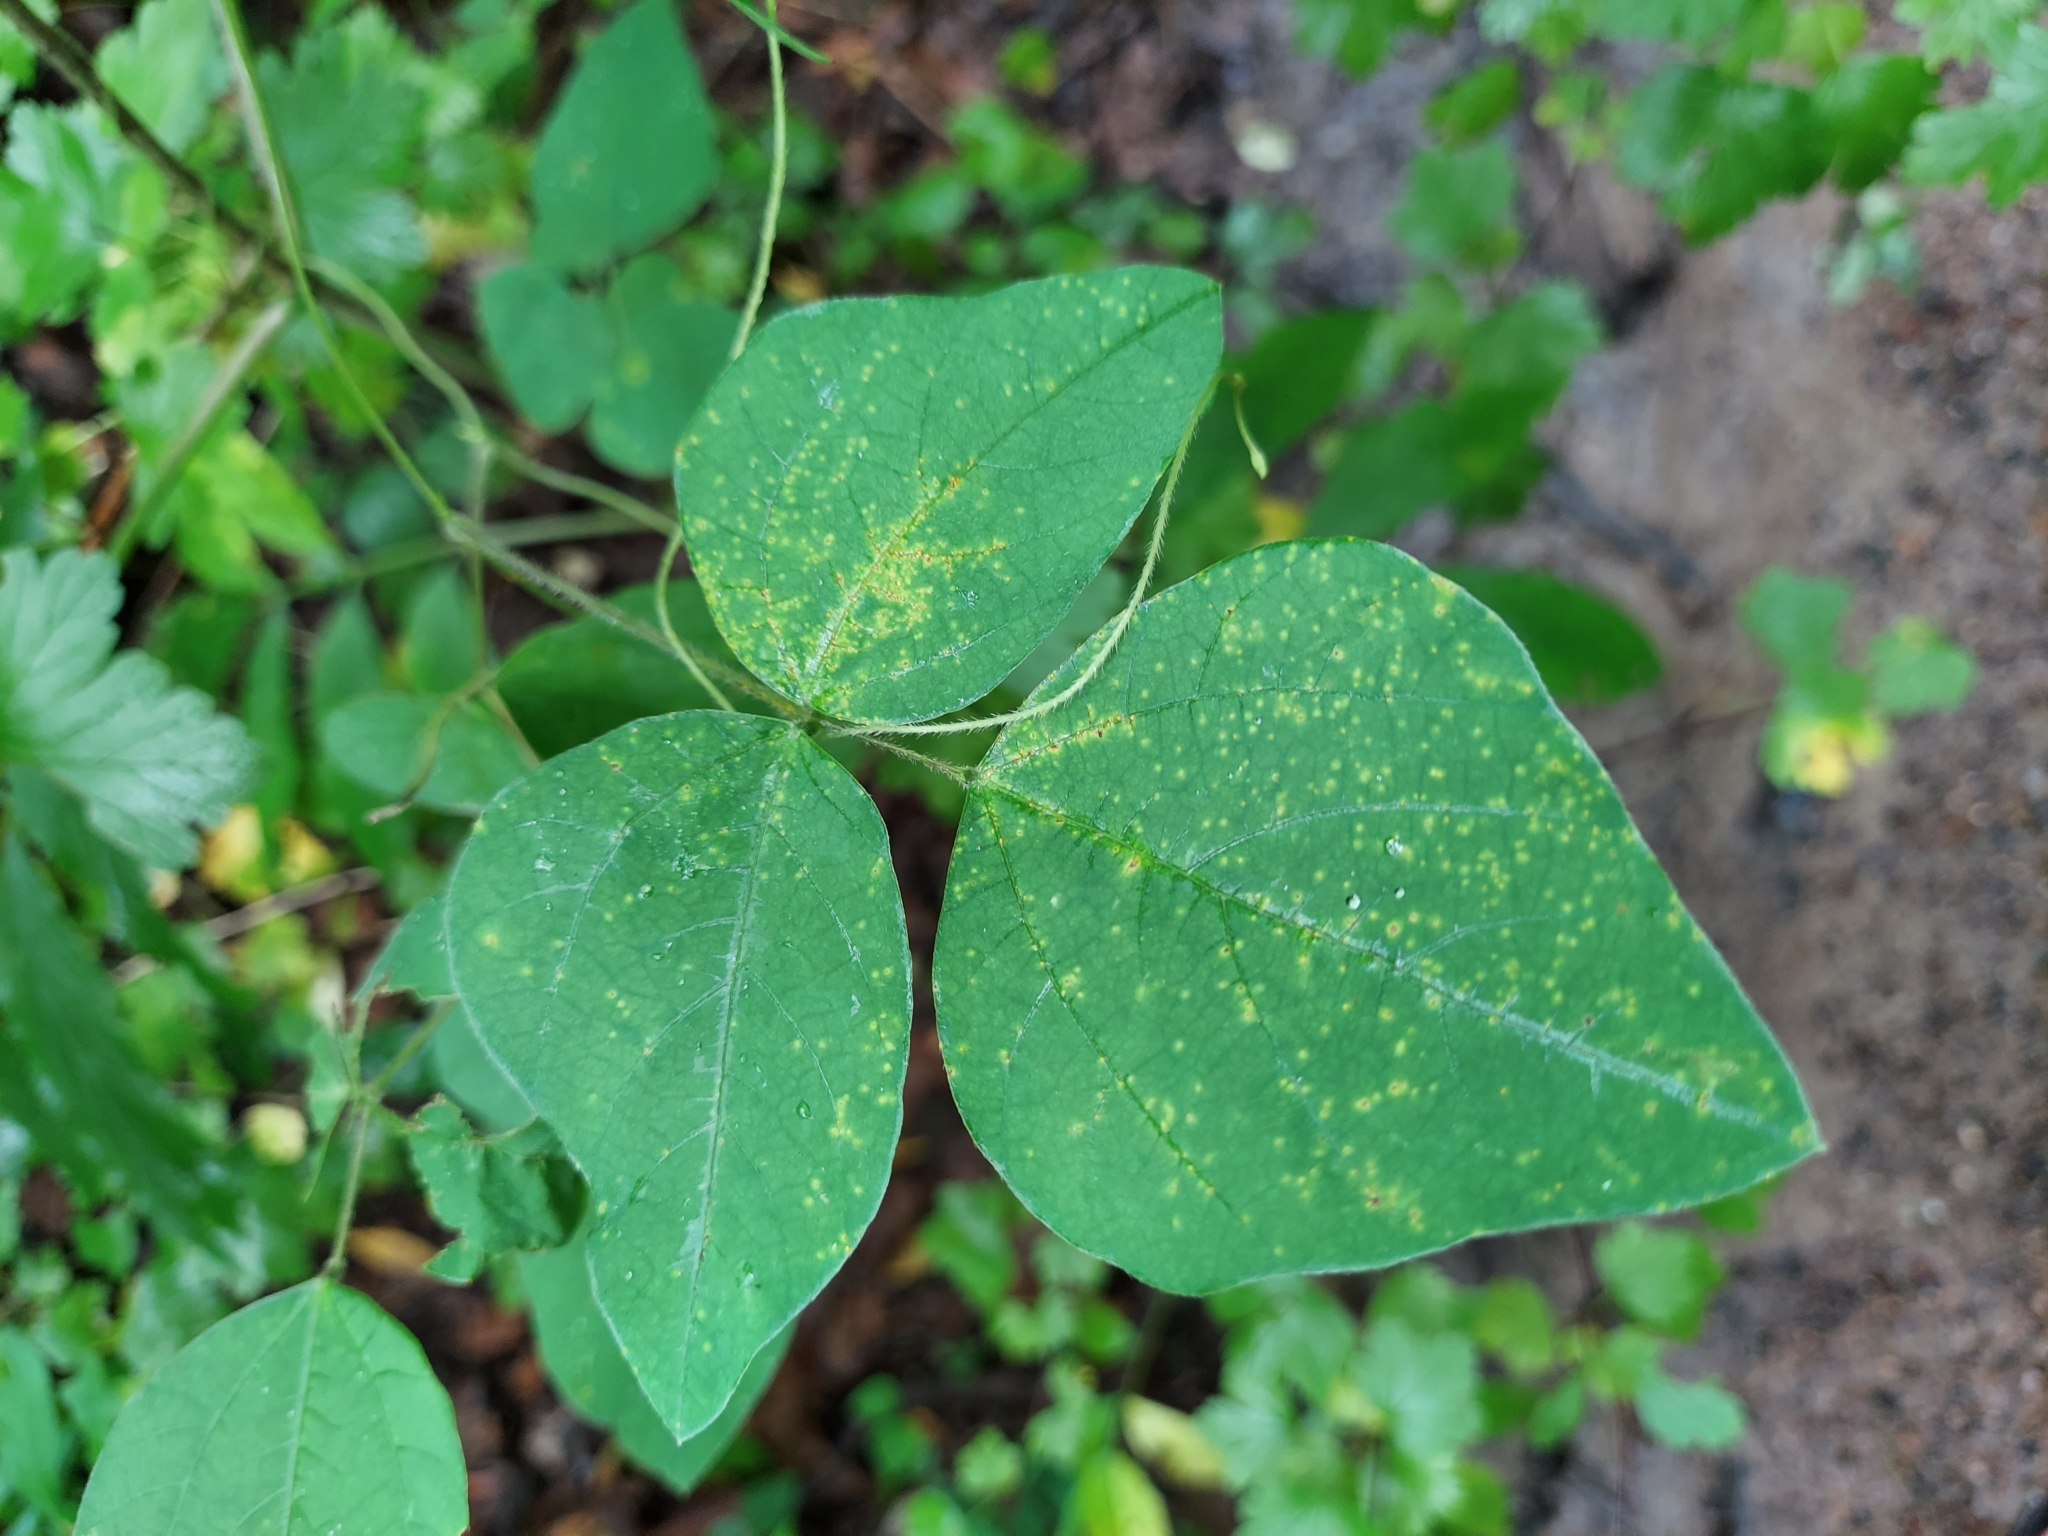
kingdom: Plantae
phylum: Tracheophyta
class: Magnoliopsida
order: Fabales
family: Fabaceae
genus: Amphicarpaea
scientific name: Amphicarpaea bracteata
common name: American hog peanut
